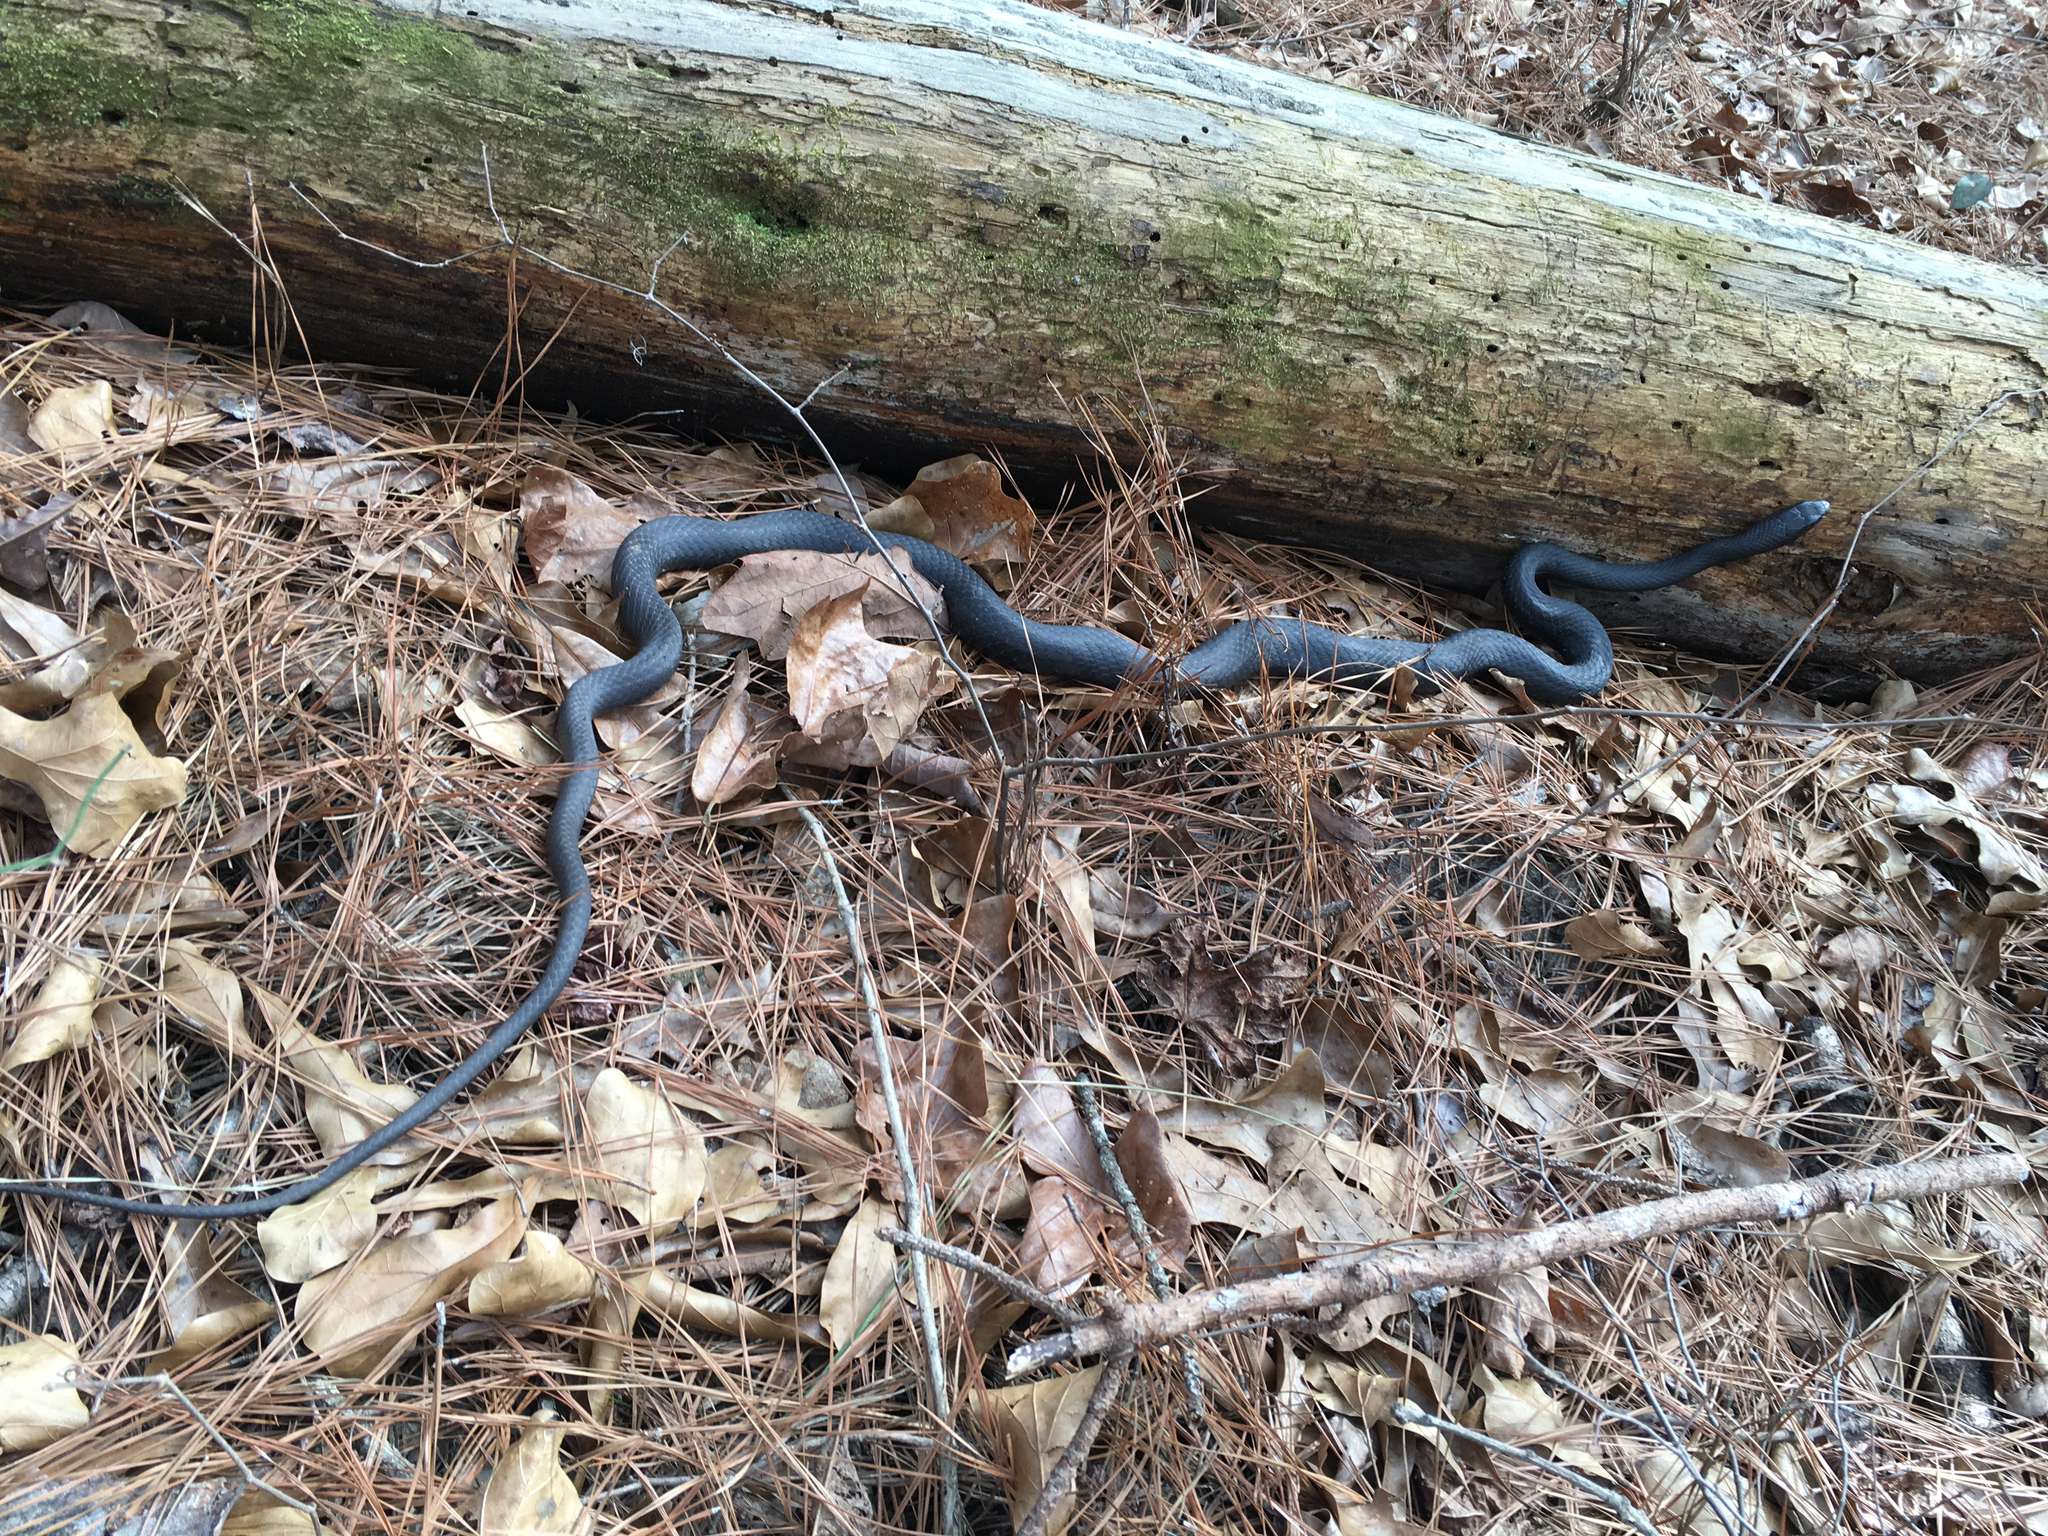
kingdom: Animalia
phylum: Chordata
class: Squamata
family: Colubridae
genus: Coluber
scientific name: Coluber constrictor
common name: Eastern racer
